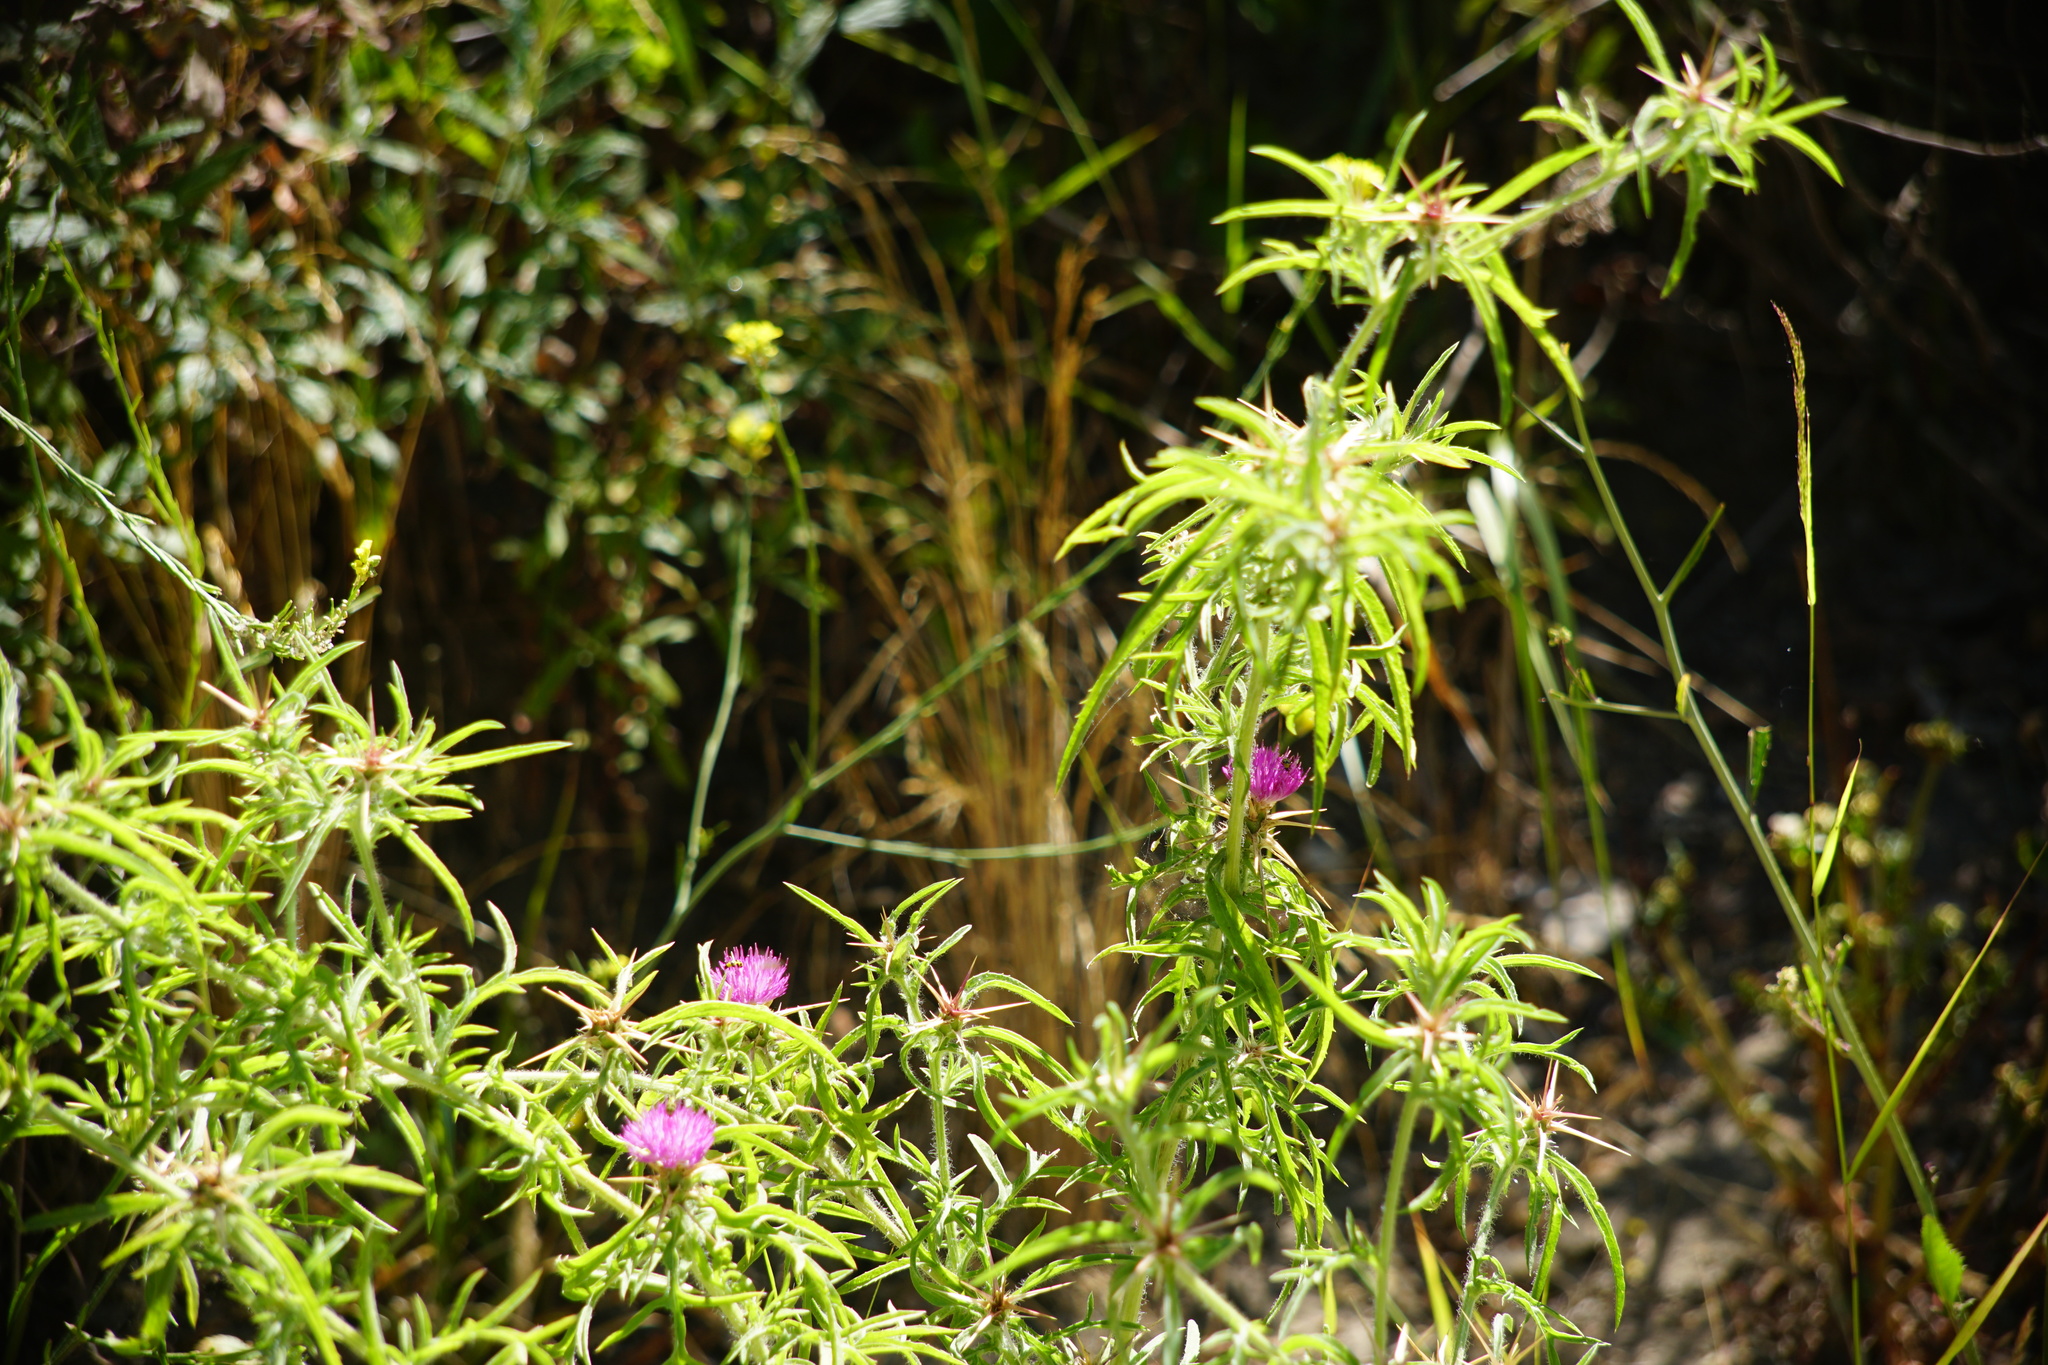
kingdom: Plantae
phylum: Tracheophyta
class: Magnoliopsida
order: Asterales
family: Asteraceae
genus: Centaurea
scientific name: Centaurea calcitrapa
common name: Red star-thistle
